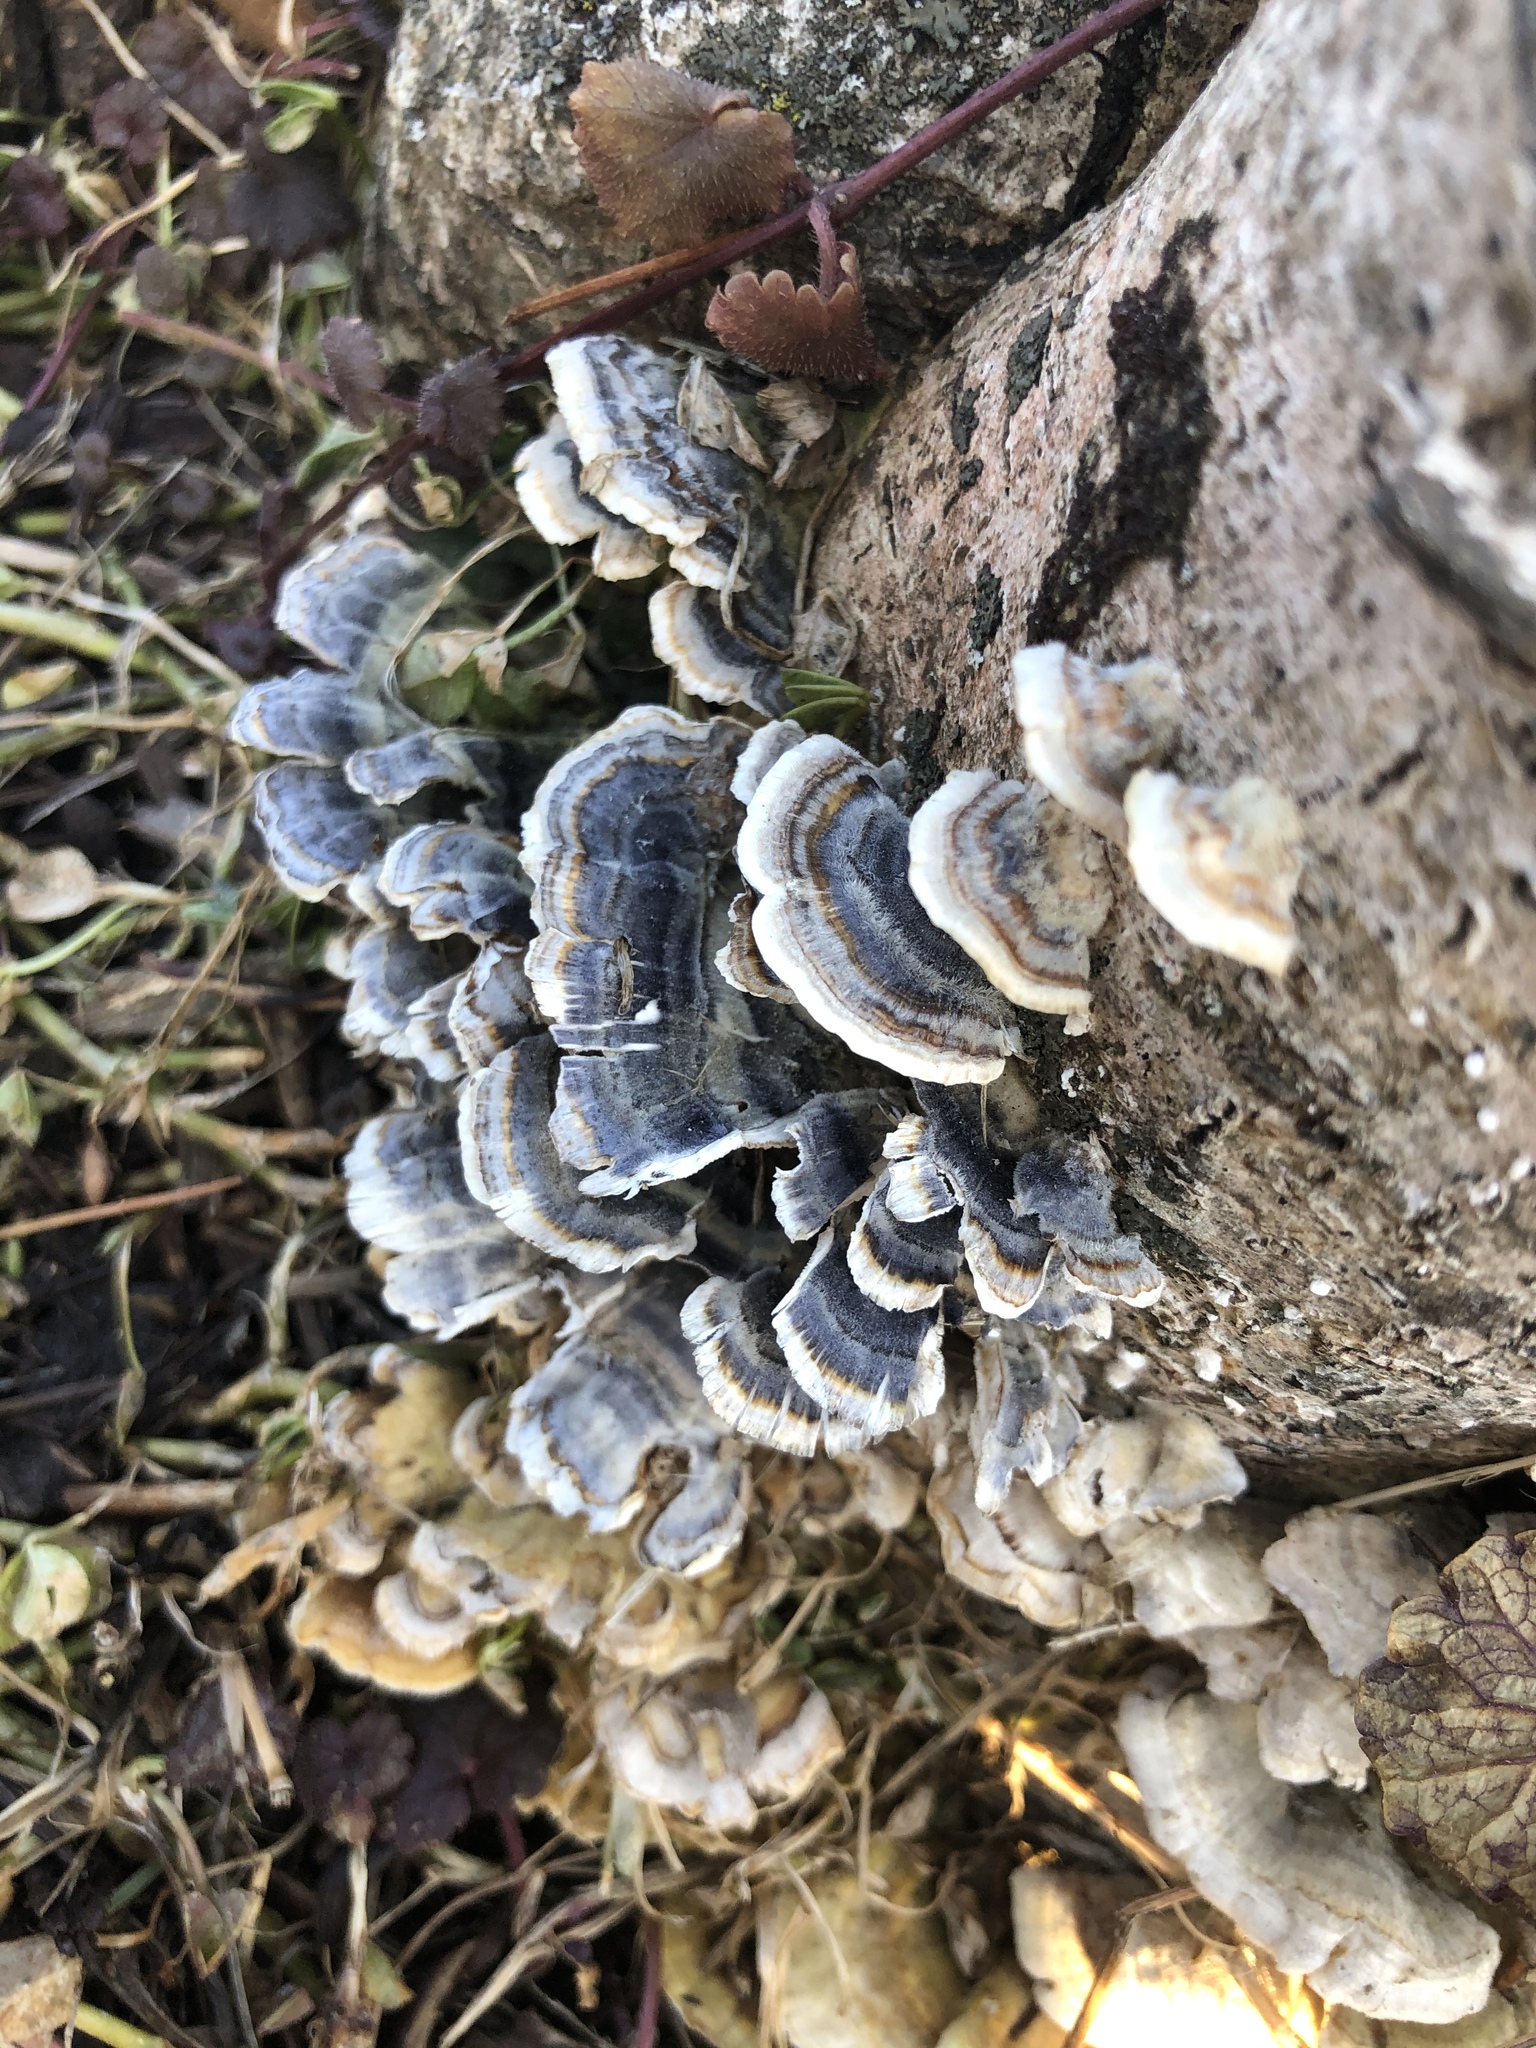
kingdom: Fungi
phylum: Basidiomycota
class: Agaricomycetes
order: Polyporales
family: Polyporaceae
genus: Trametes
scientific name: Trametes versicolor
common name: Turkeytail
